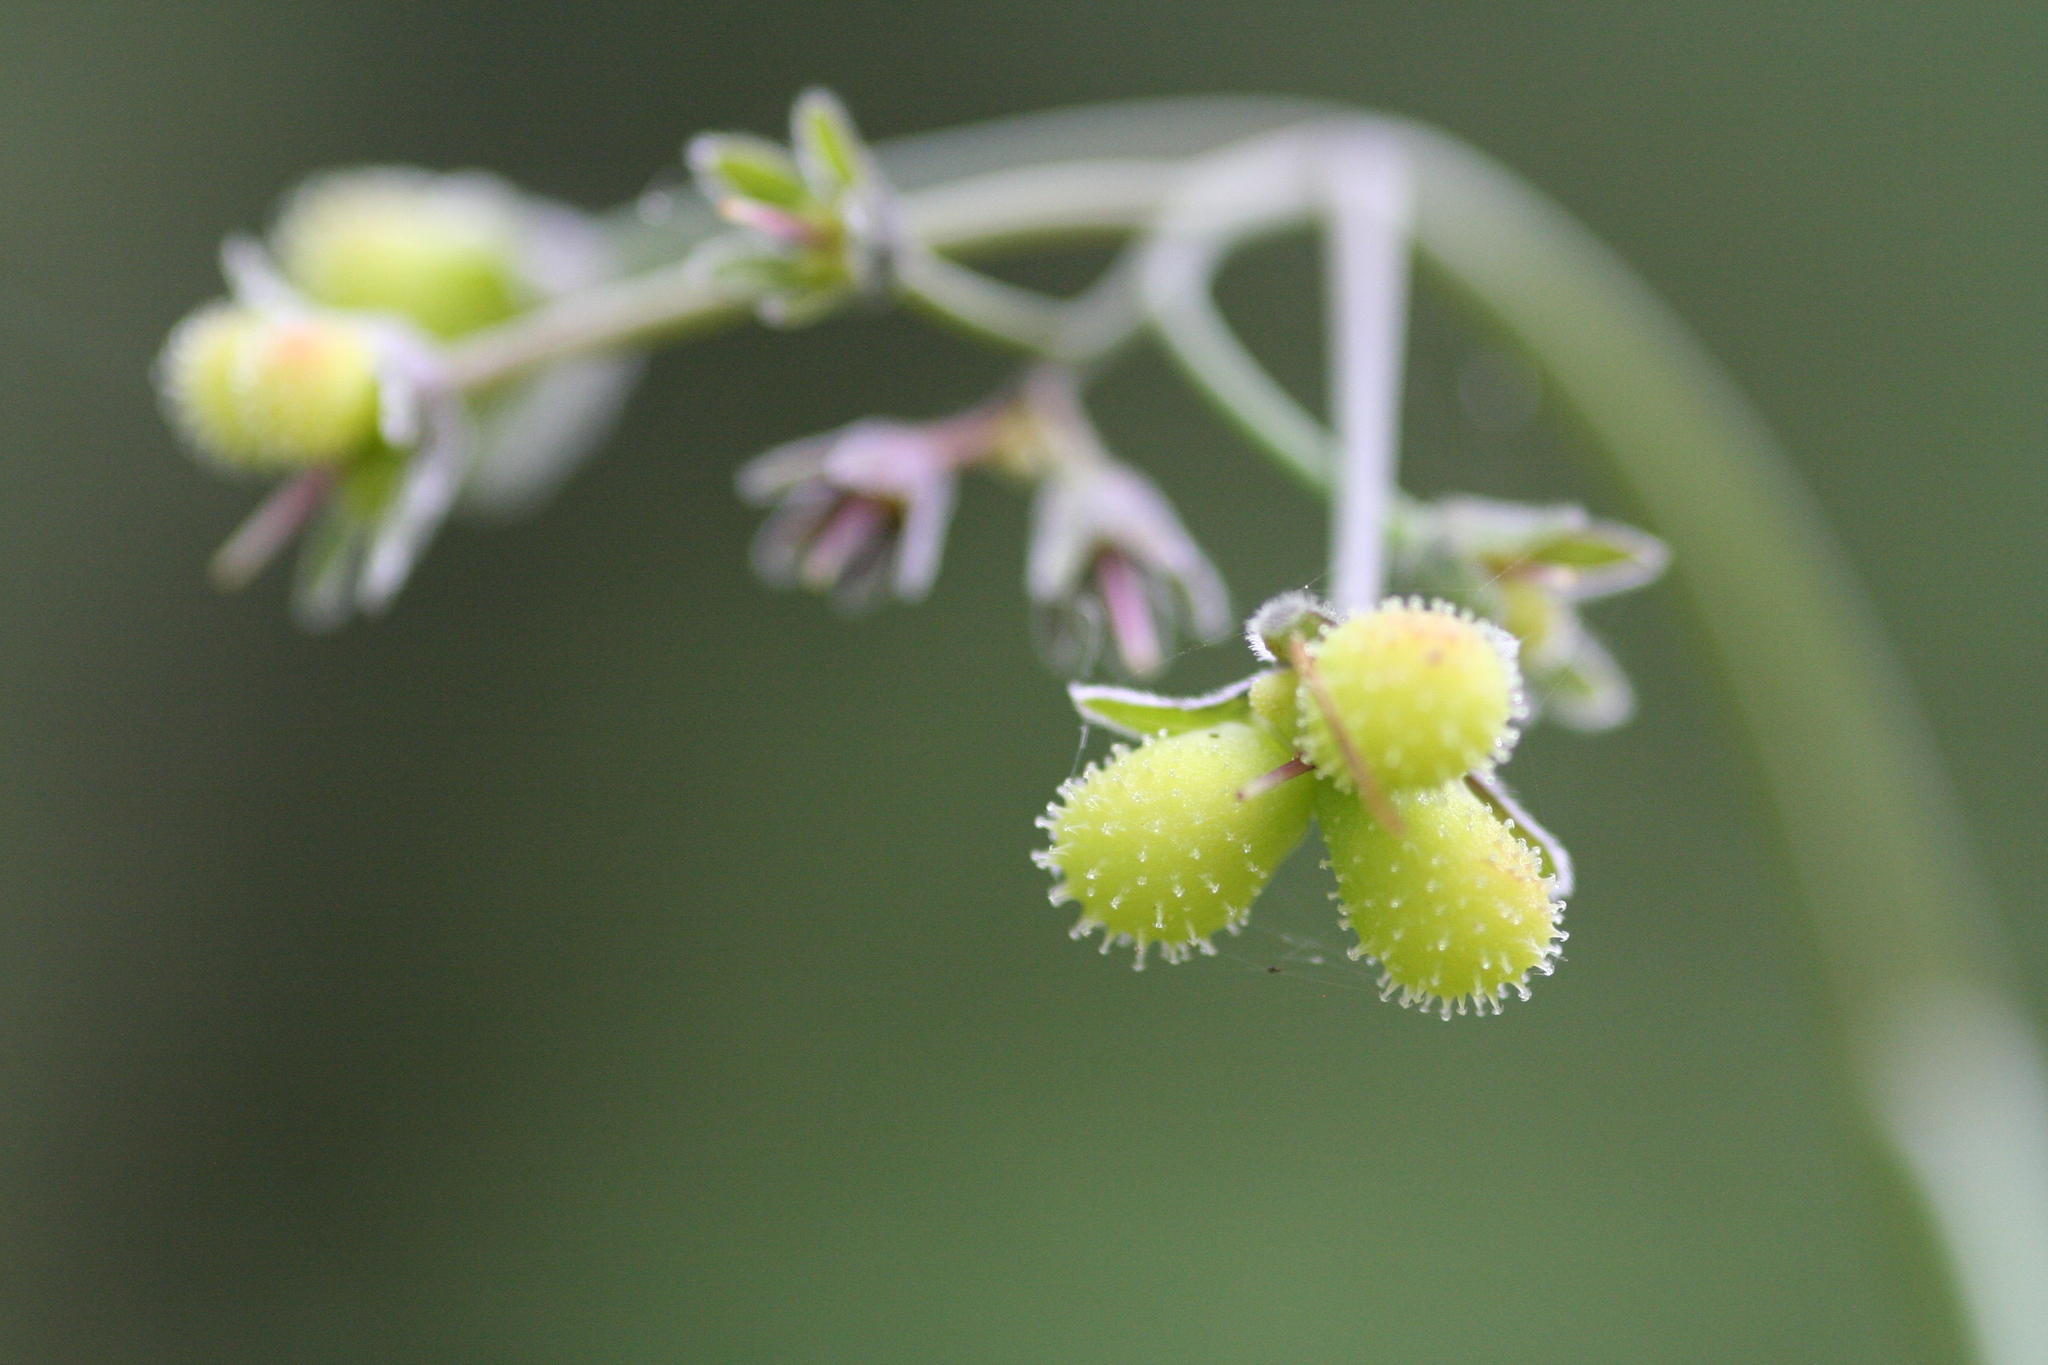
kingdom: Plantae
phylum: Tracheophyta
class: Magnoliopsida
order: Boraginales
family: Boraginaceae
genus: Adelinia
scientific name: Adelinia grande
